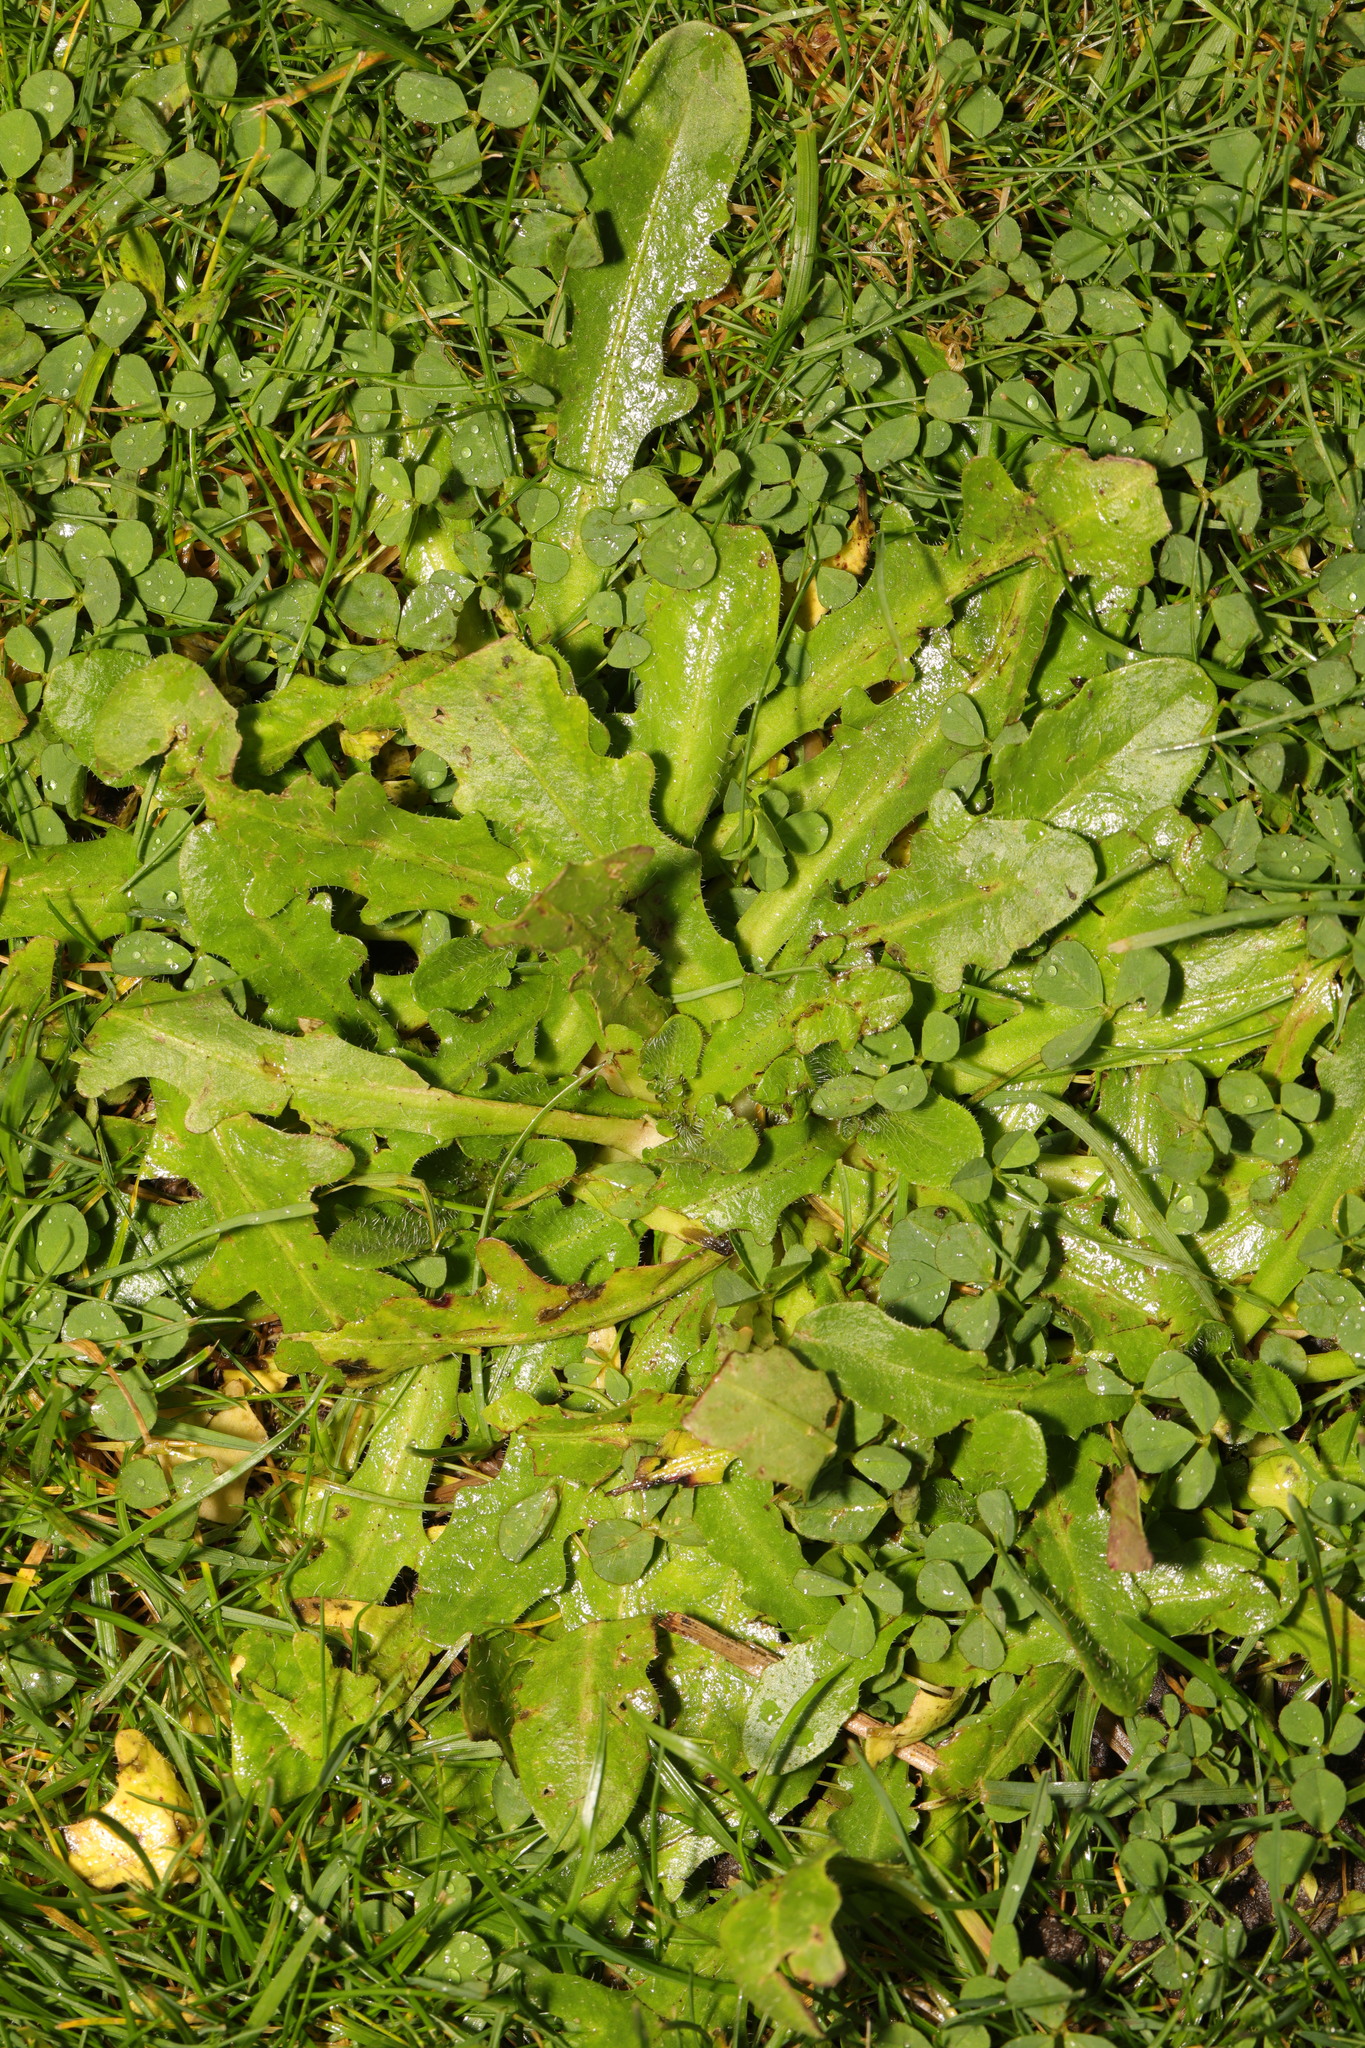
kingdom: Plantae
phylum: Tracheophyta
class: Magnoliopsida
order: Asterales
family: Asteraceae
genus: Hypochaeris
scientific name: Hypochaeris radicata
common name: Flatweed
